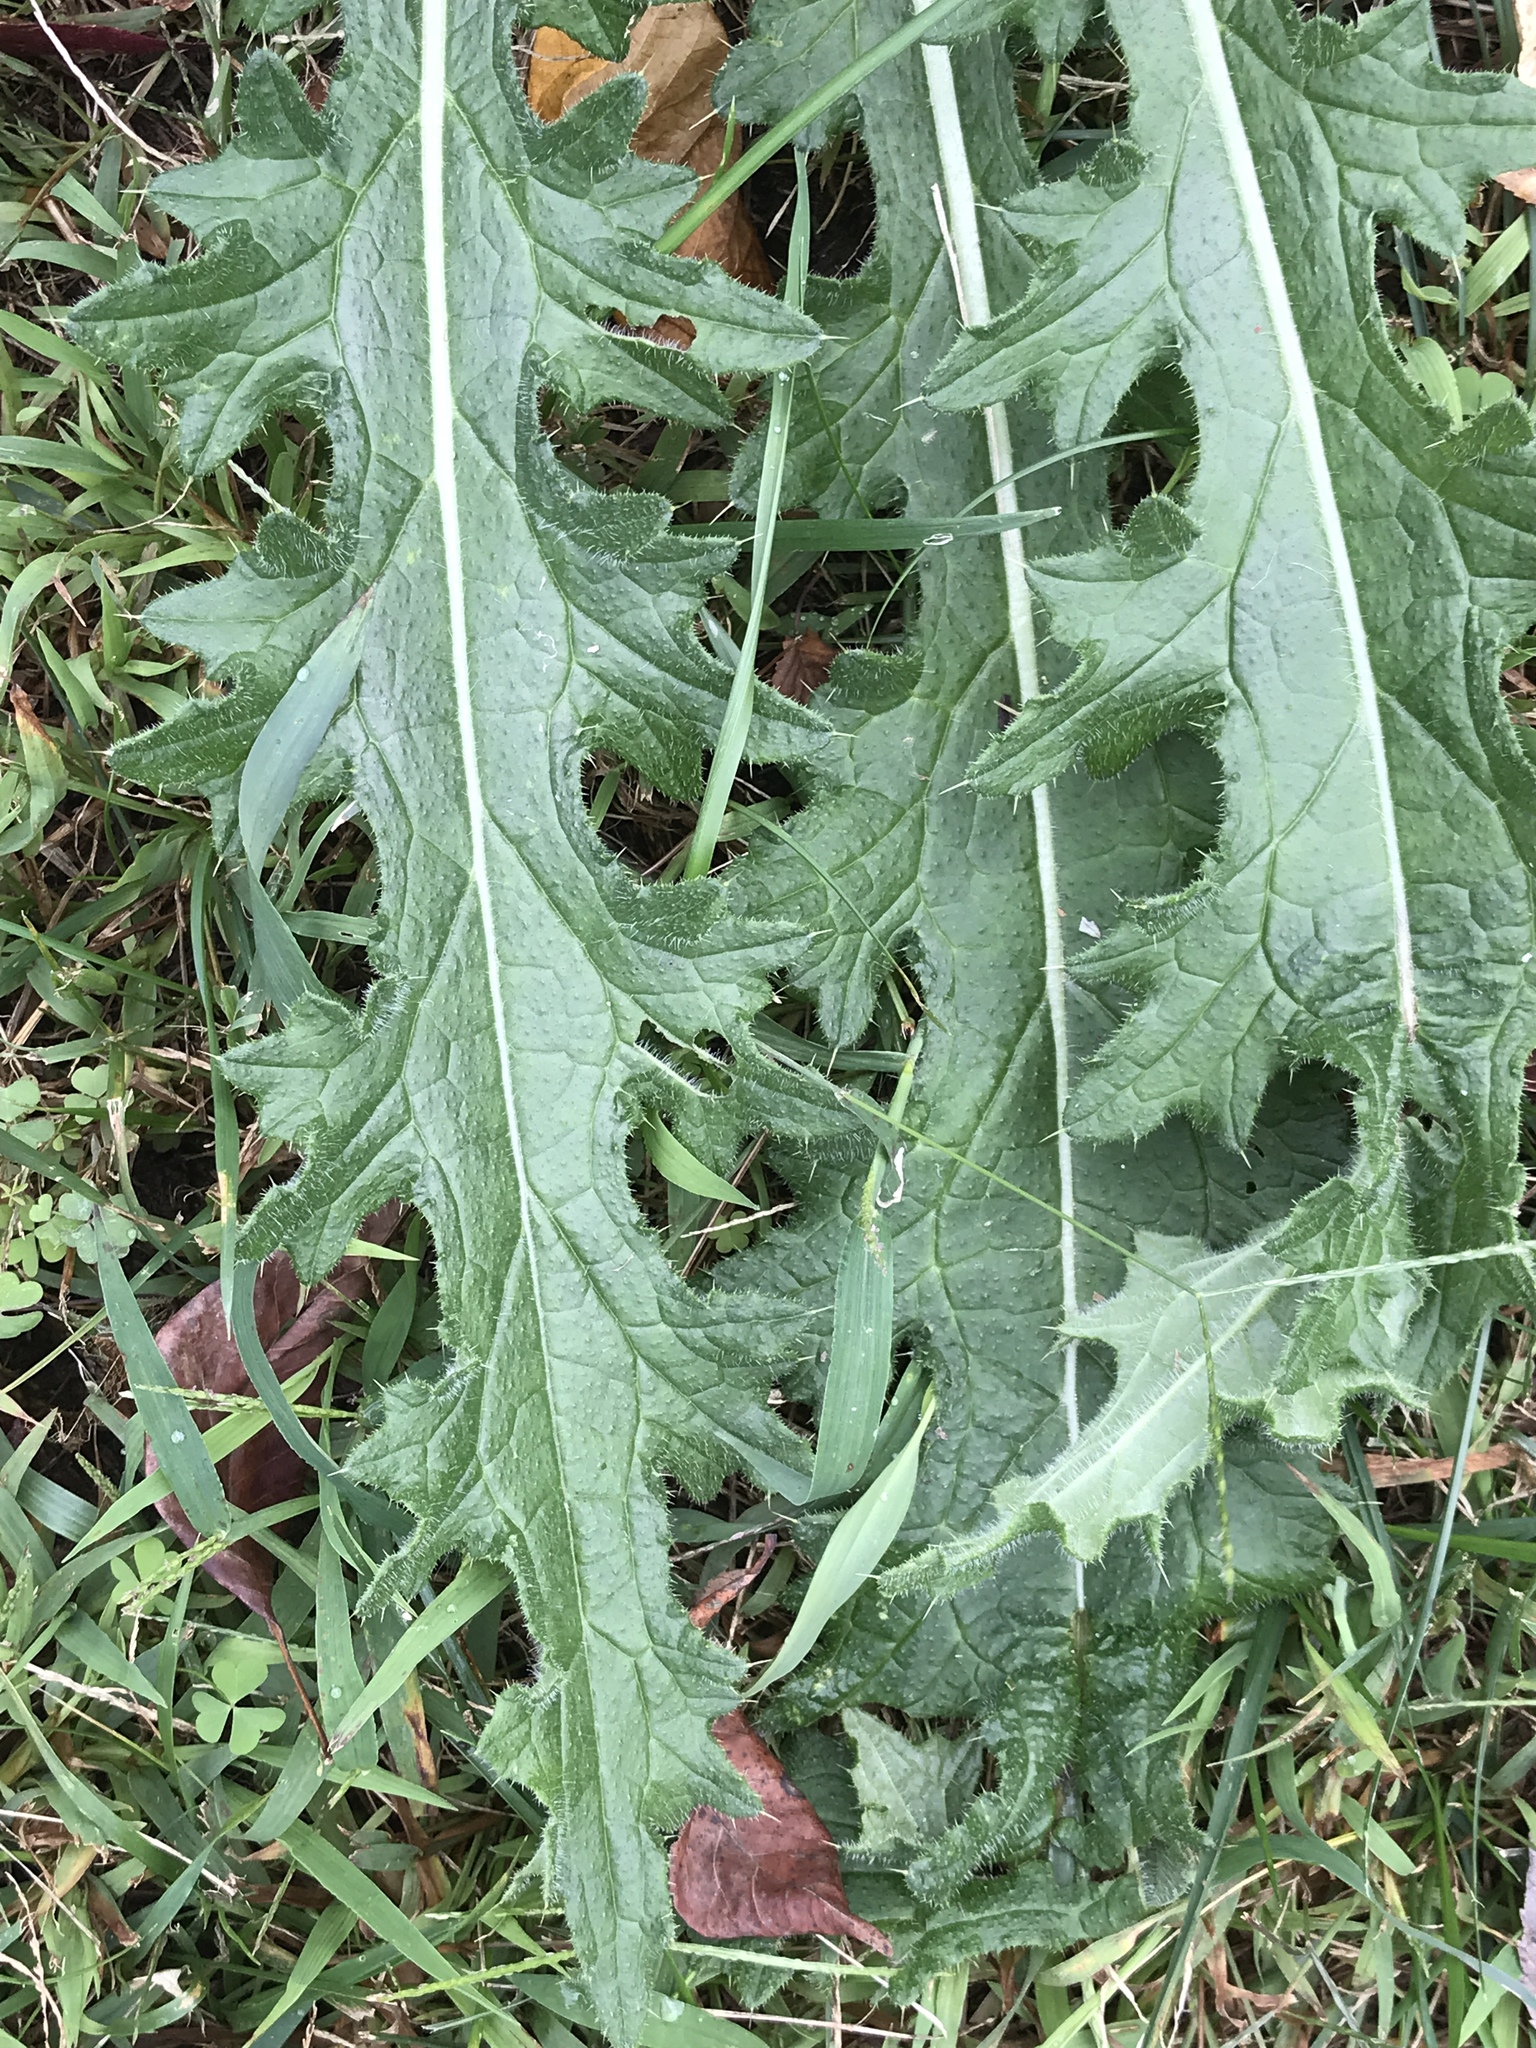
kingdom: Plantae
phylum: Tracheophyta
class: Magnoliopsida
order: Asterales
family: Asteraceae
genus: Cirsium
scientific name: Cirsium vulgare
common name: Bull thistle
